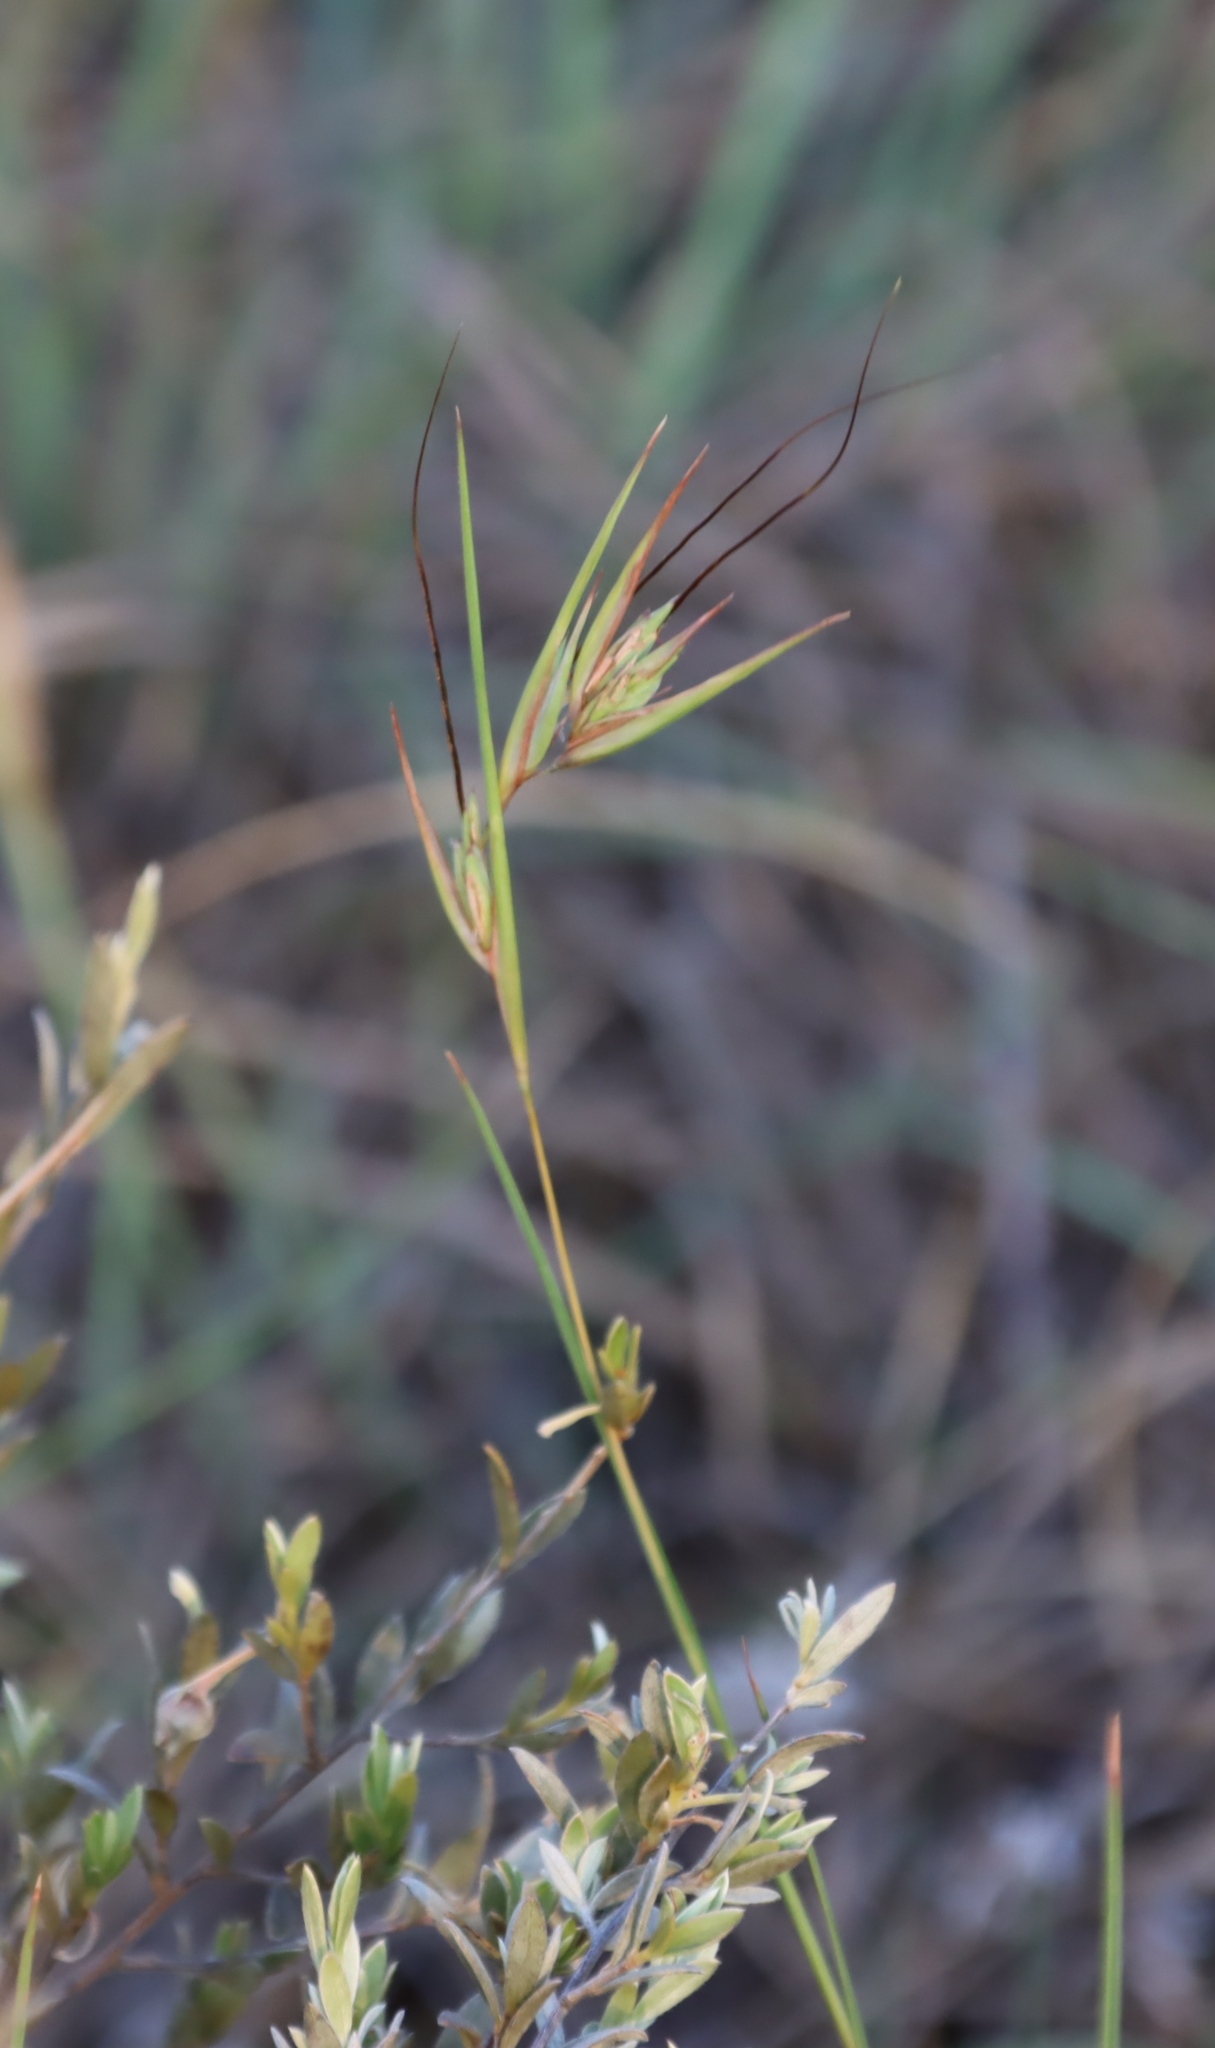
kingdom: Plantae
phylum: Tracheophyta
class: Liliopsida
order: Poales
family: Poaceae
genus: Themeda
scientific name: Themeda triandra
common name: Kangaroo grass
